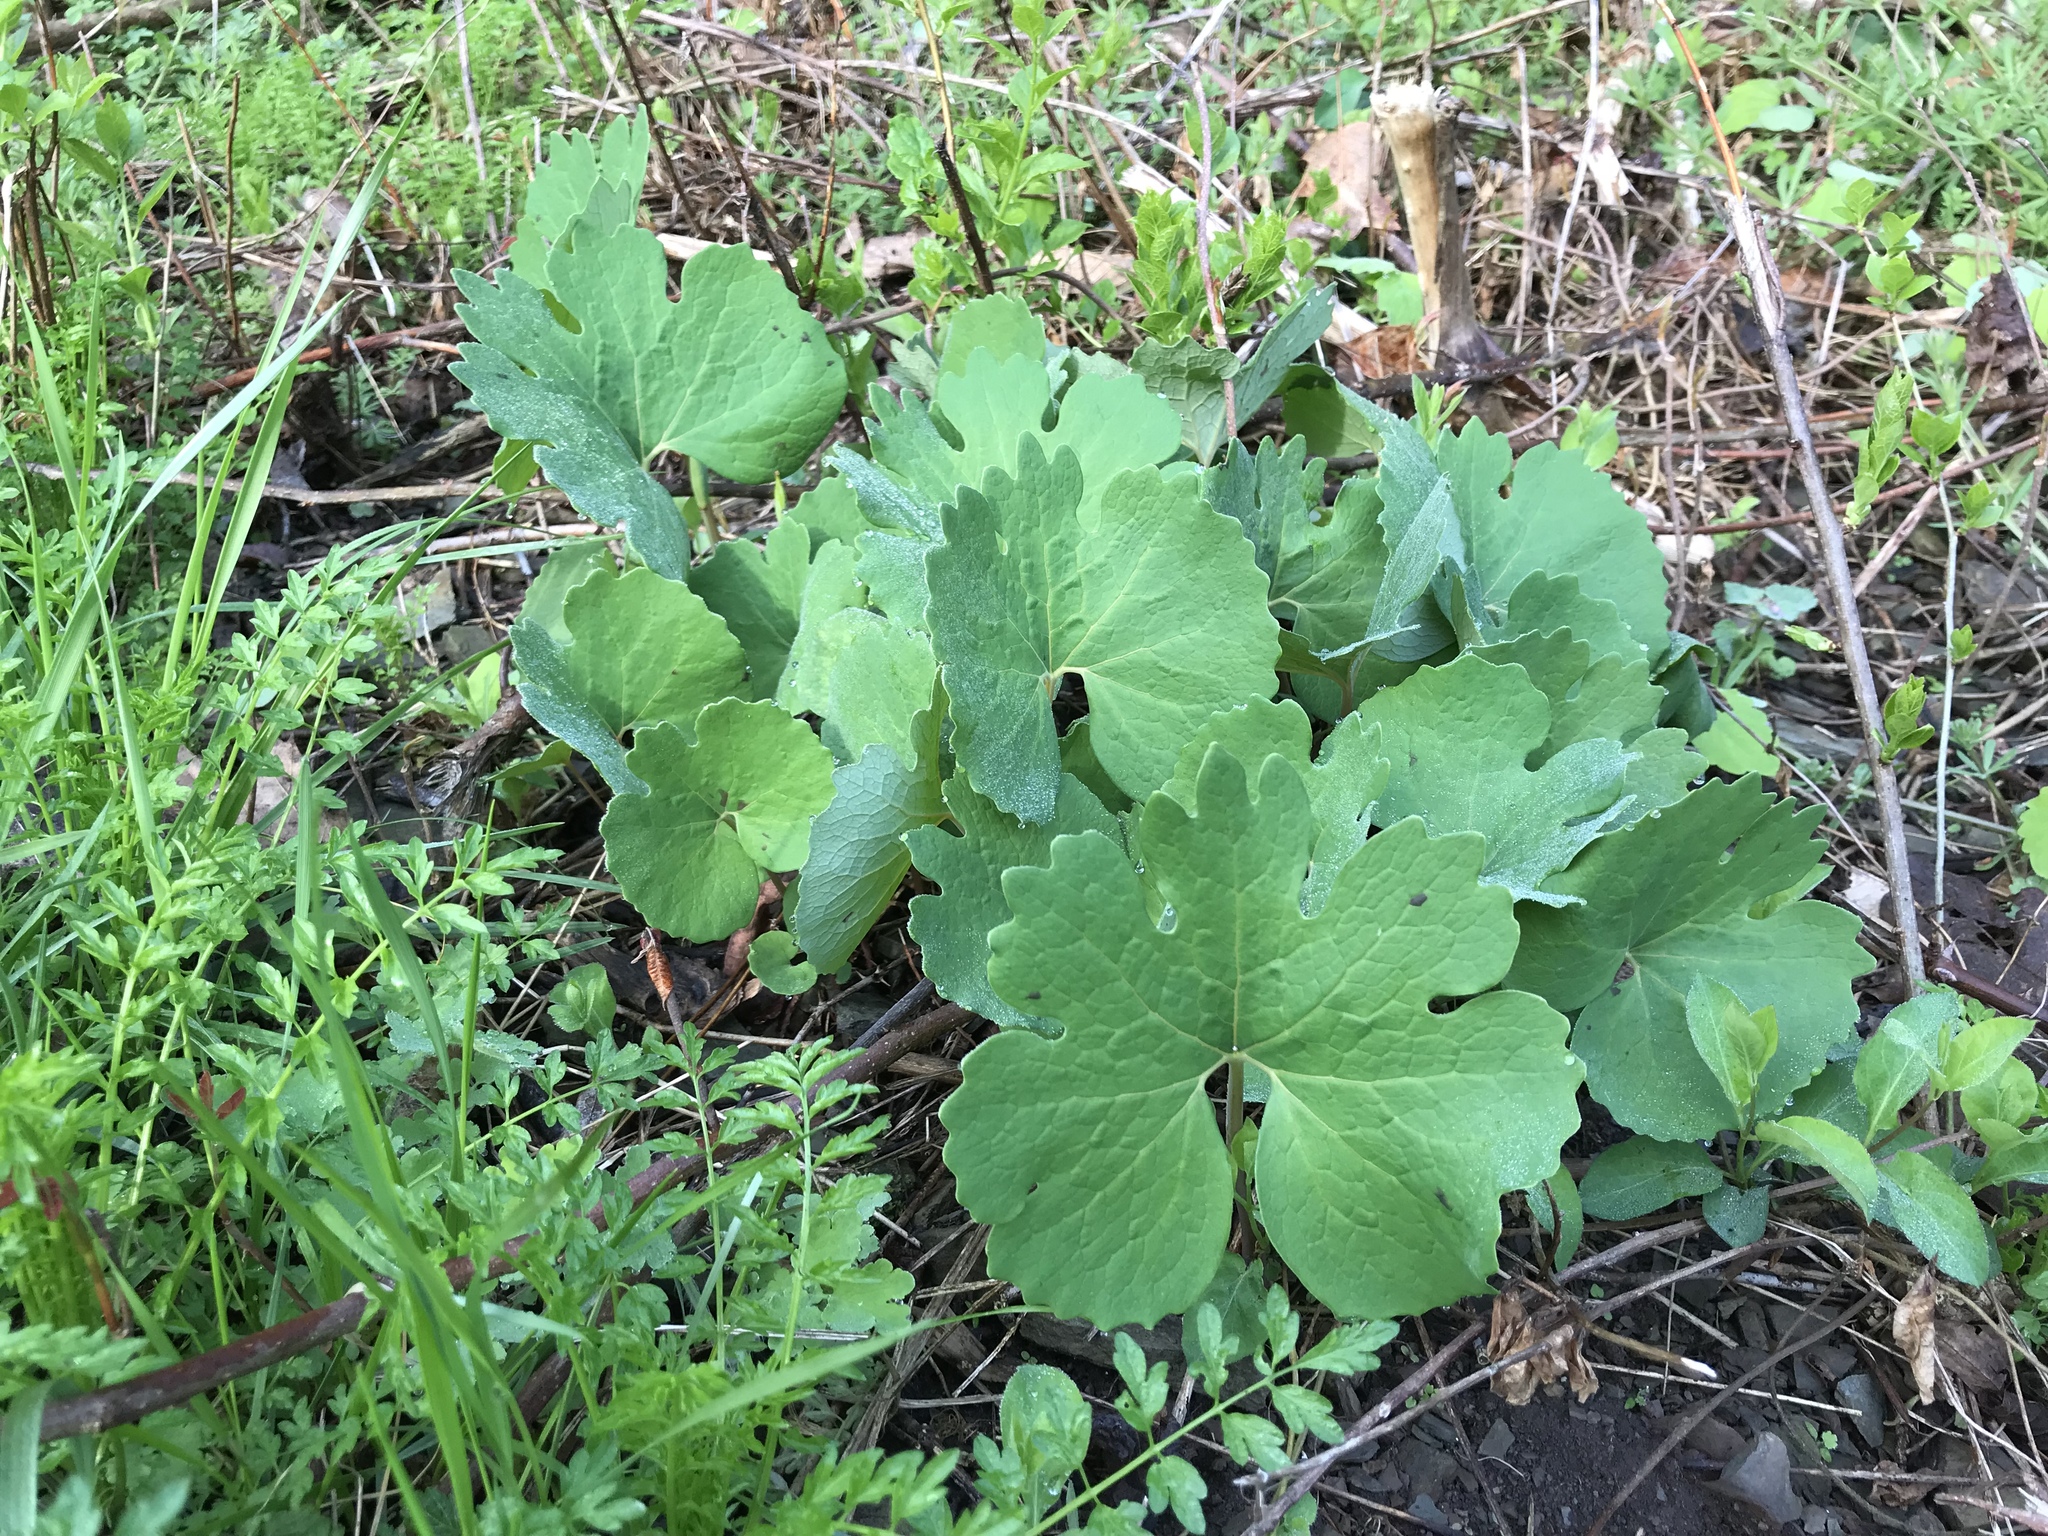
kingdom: Plantae
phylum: Tracheophyta
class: Magnoliopsida
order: Ranunculales
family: Papaveraceae
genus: Sanguinaria
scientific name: Sanguinaria canadensis
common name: Bloodroot
